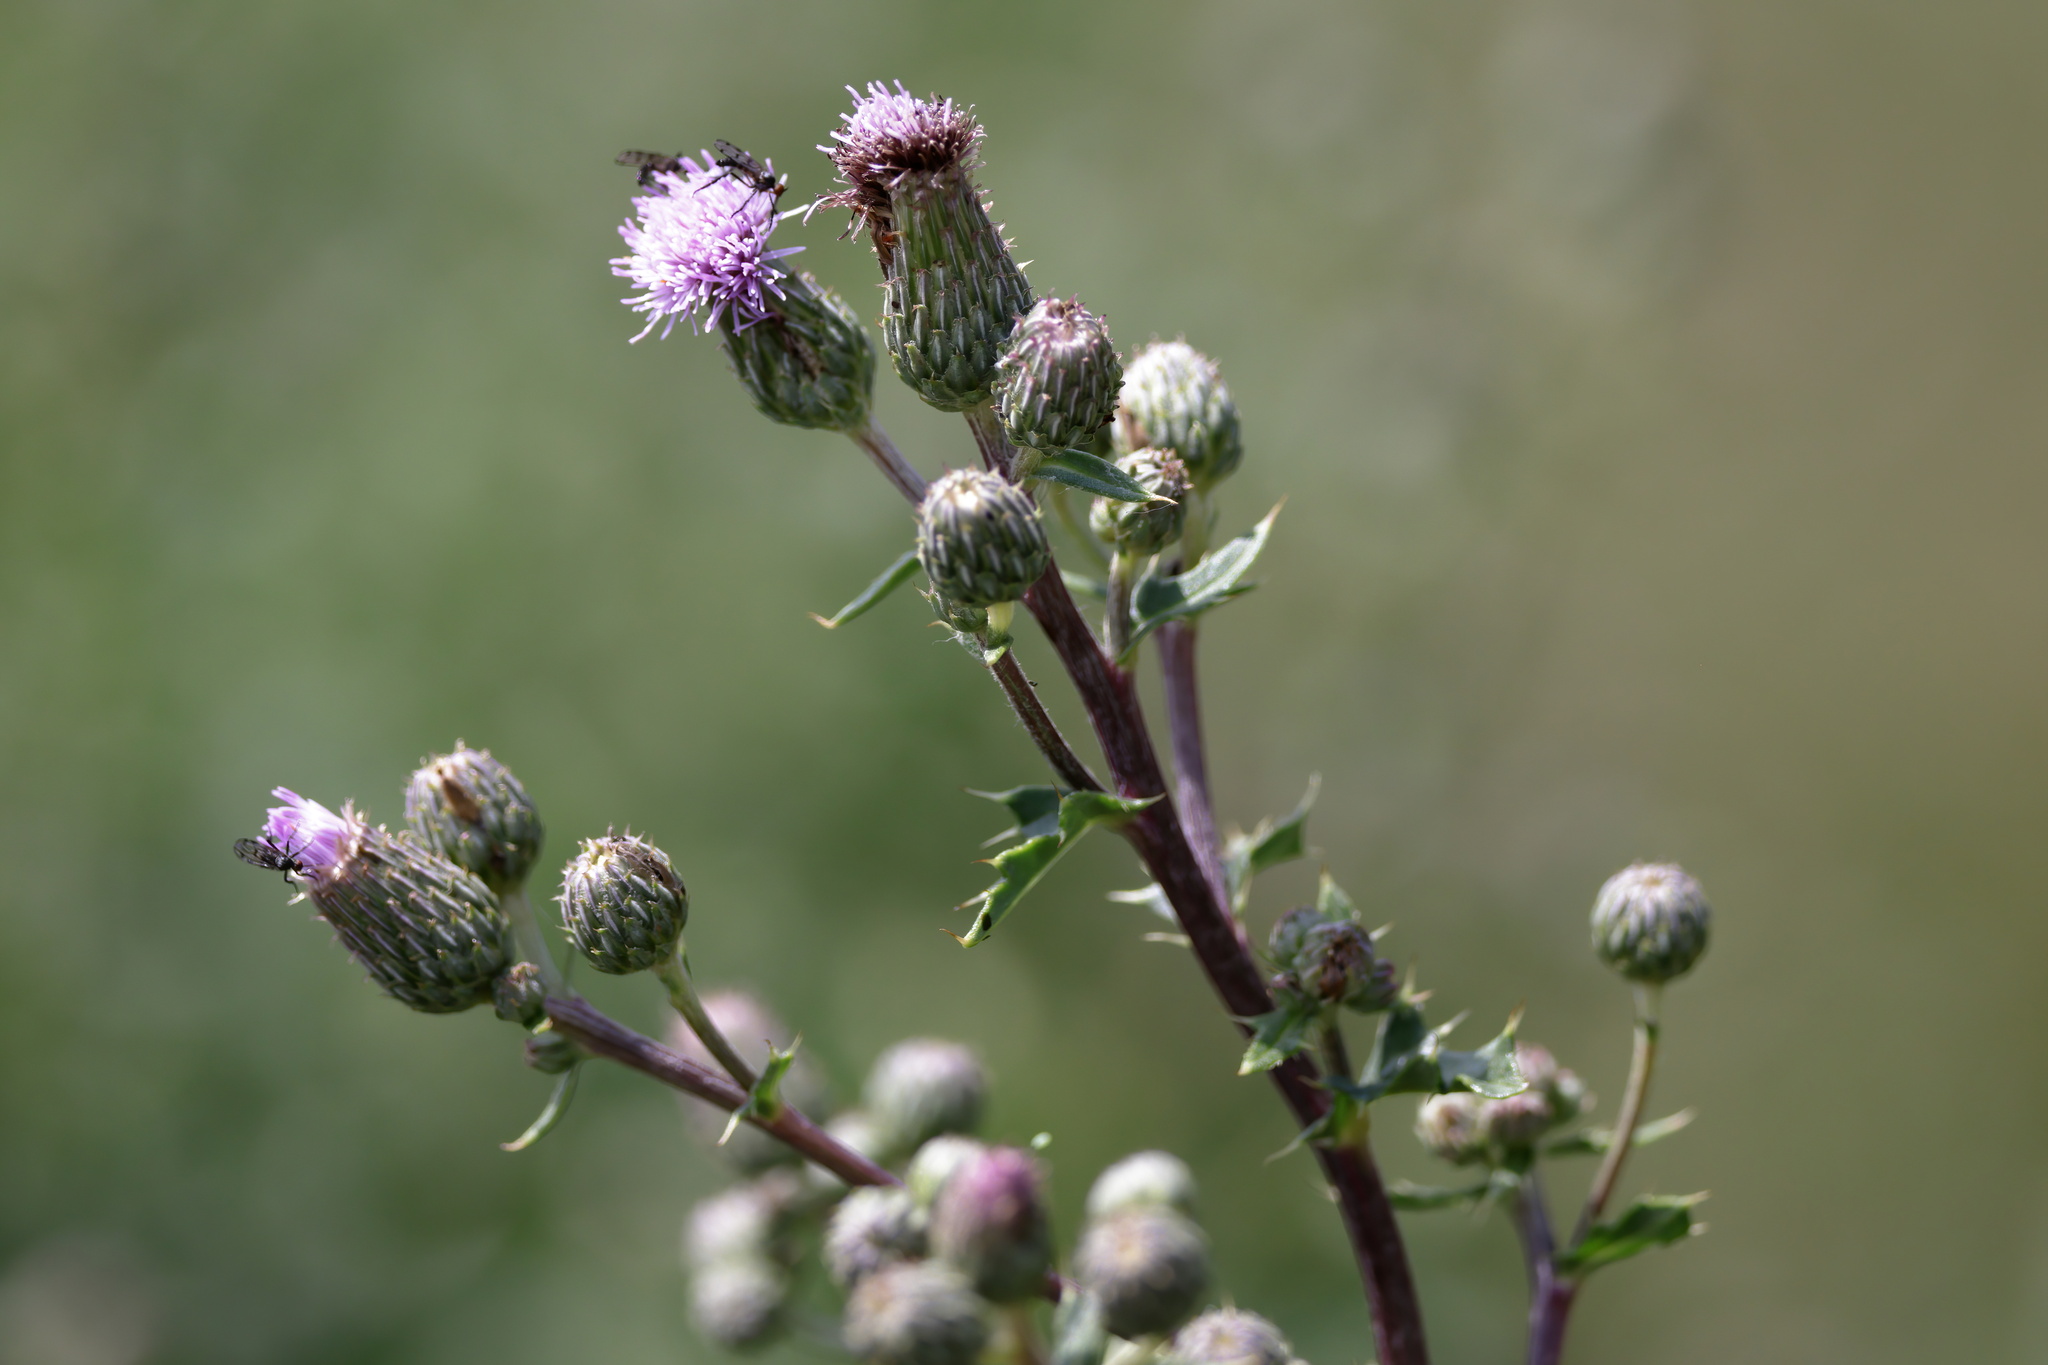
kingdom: Plantae
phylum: Tracheophyta
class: Magnoliopsida
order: Asterales
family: Asteraceae
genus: Cirsium
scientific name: Cirsium arvense
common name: Creeping thistle
